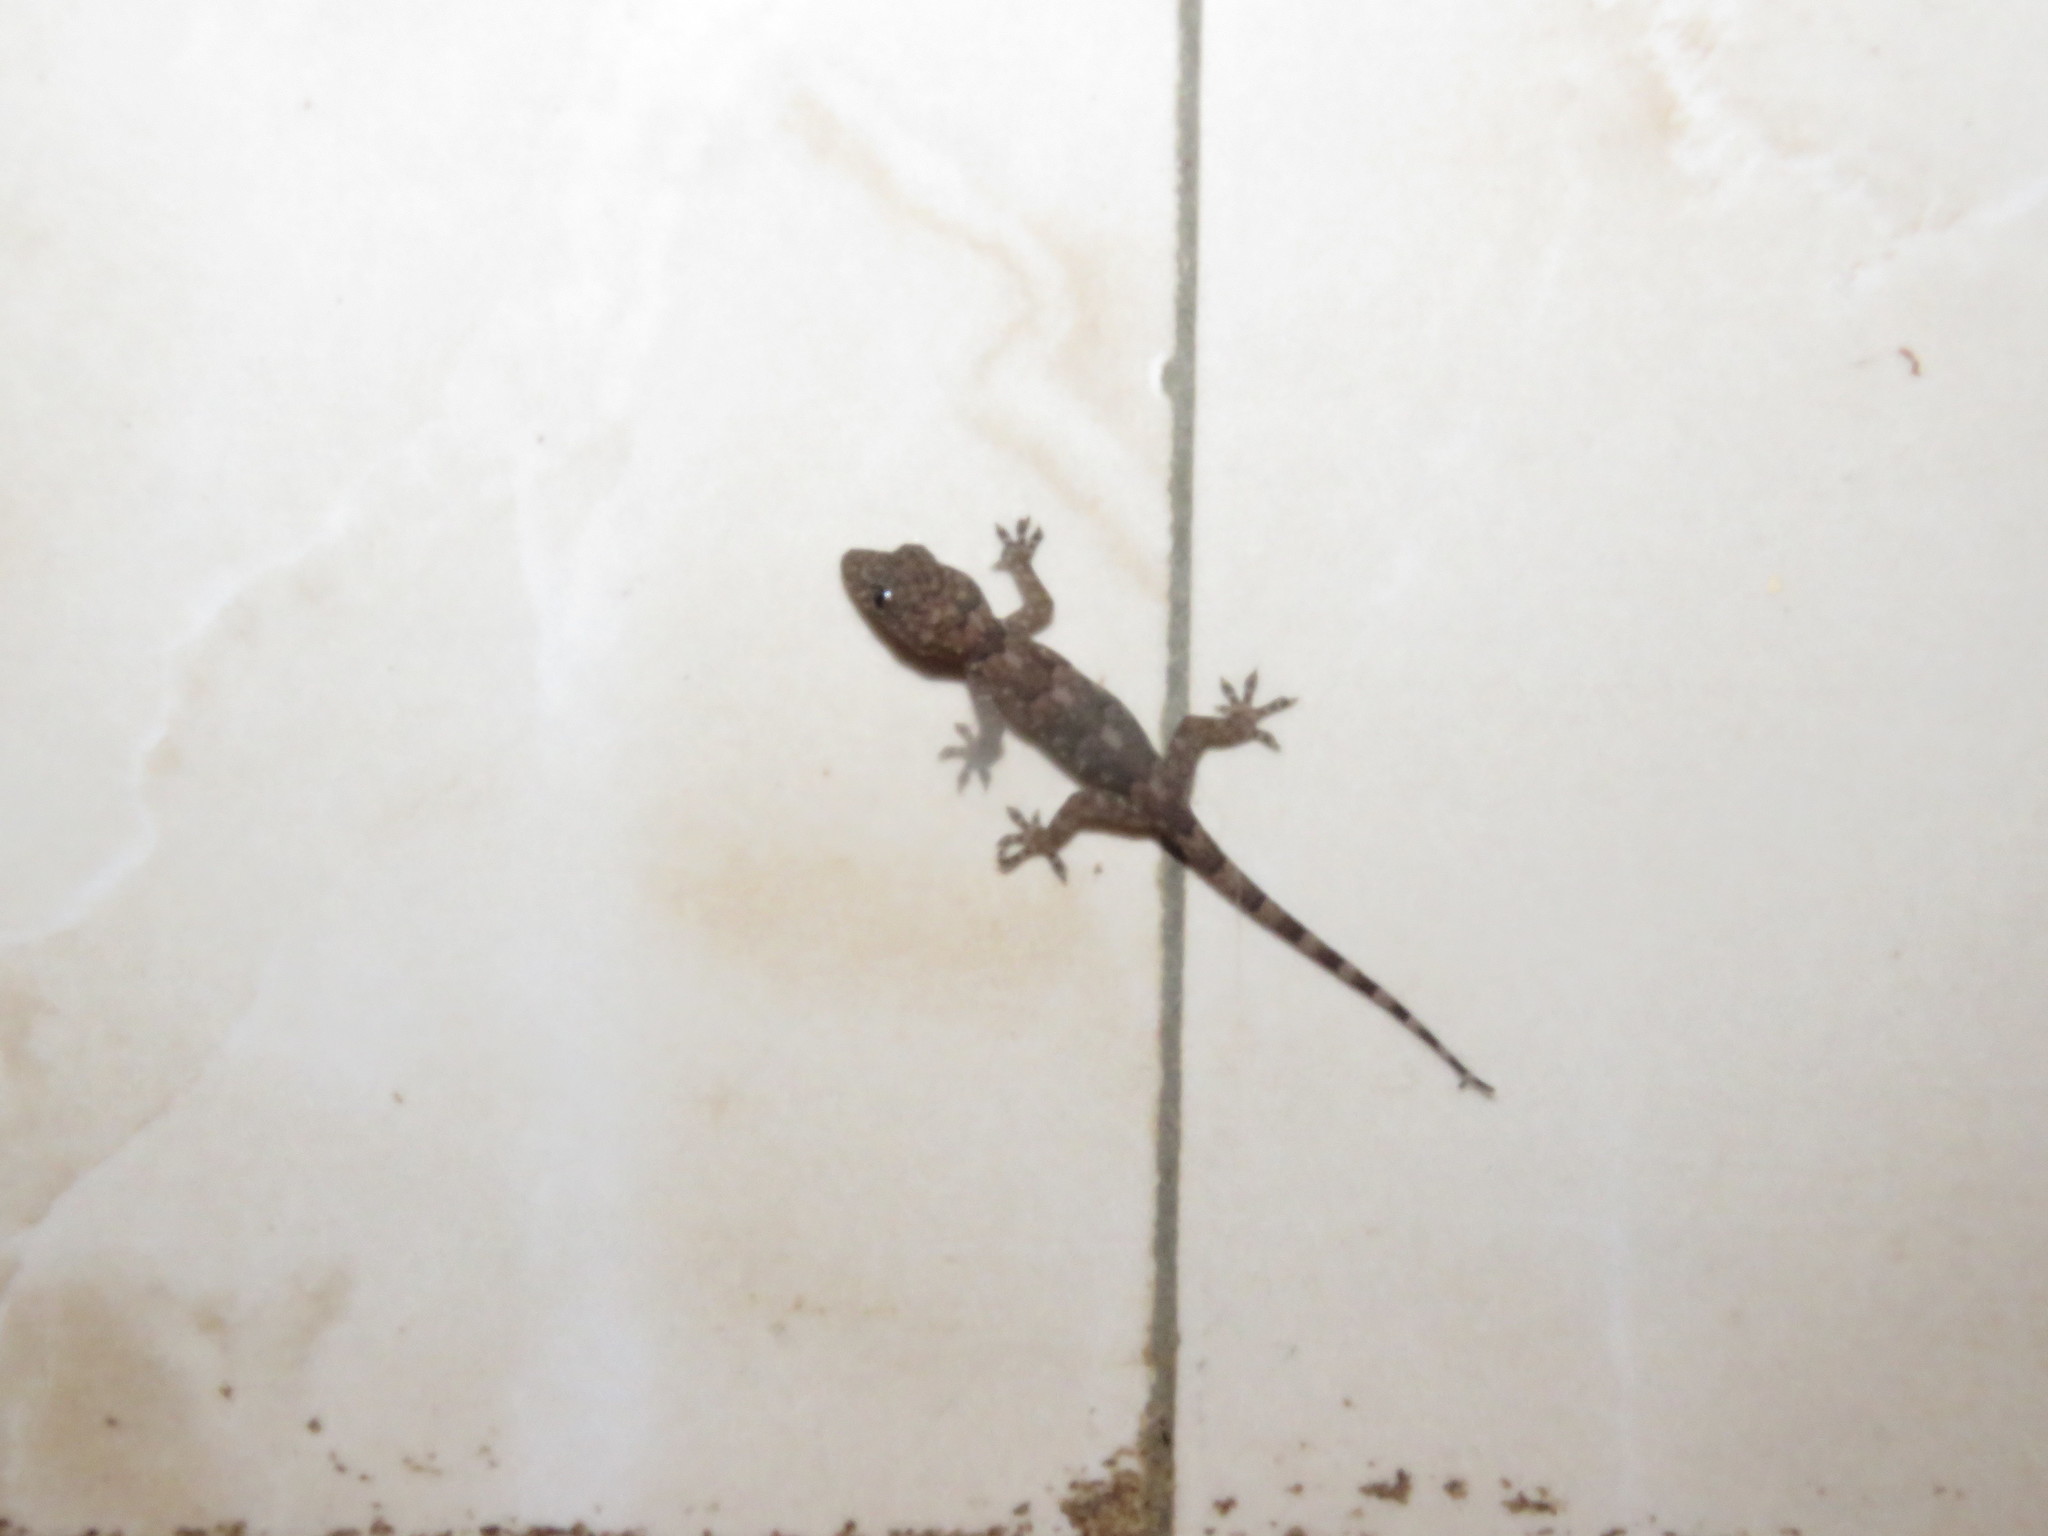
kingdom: Animalia
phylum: Chordata
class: Squamata
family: Gekkonidae
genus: Hemidactylus
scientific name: Hemidactylus mabouia
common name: House gecko
